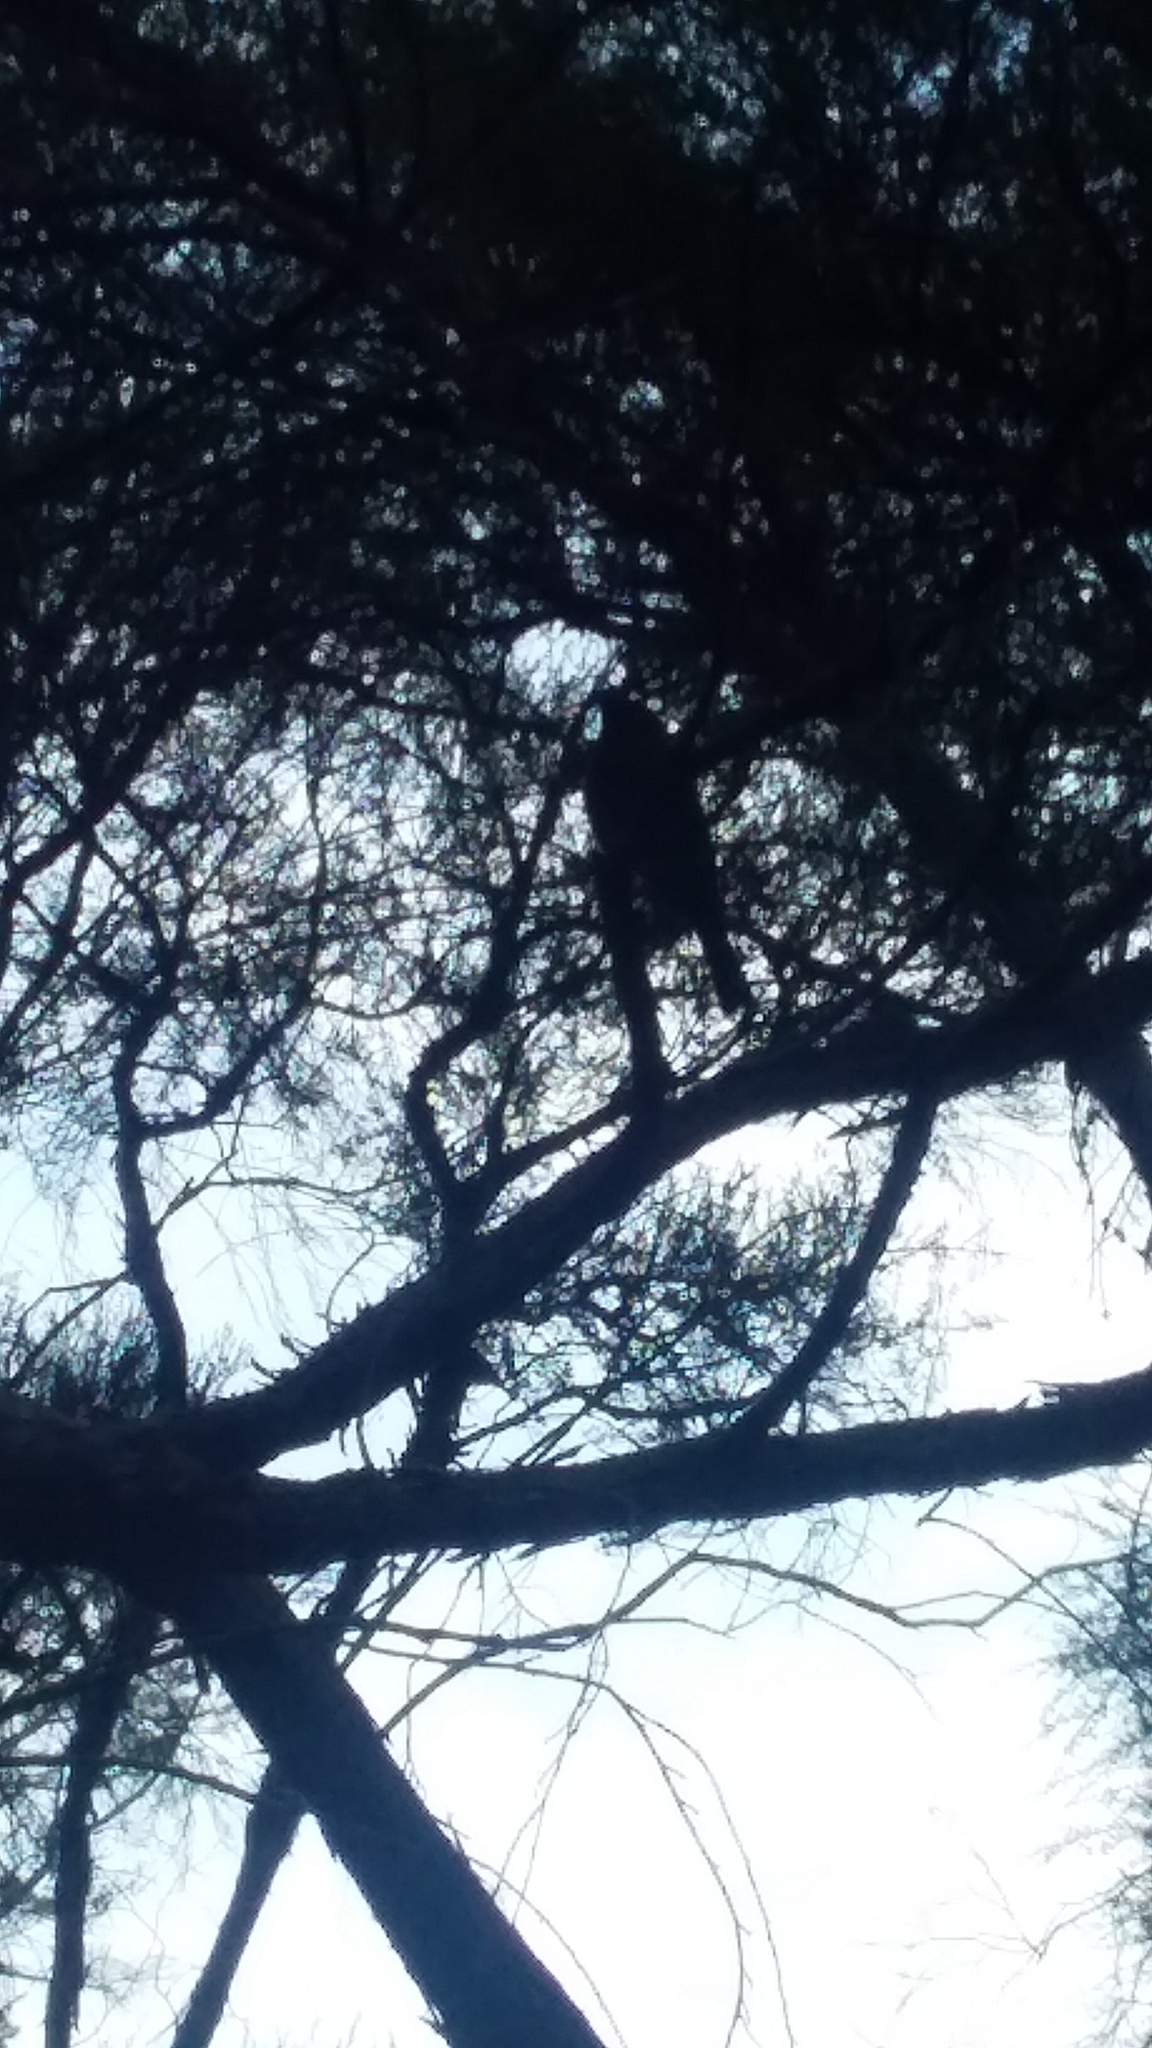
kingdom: Animalia
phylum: Chordata
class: Aves
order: Passeriformes
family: Meliphagidae
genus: Anthornis
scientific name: Anthornis melanura
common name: New zealand bellbird
